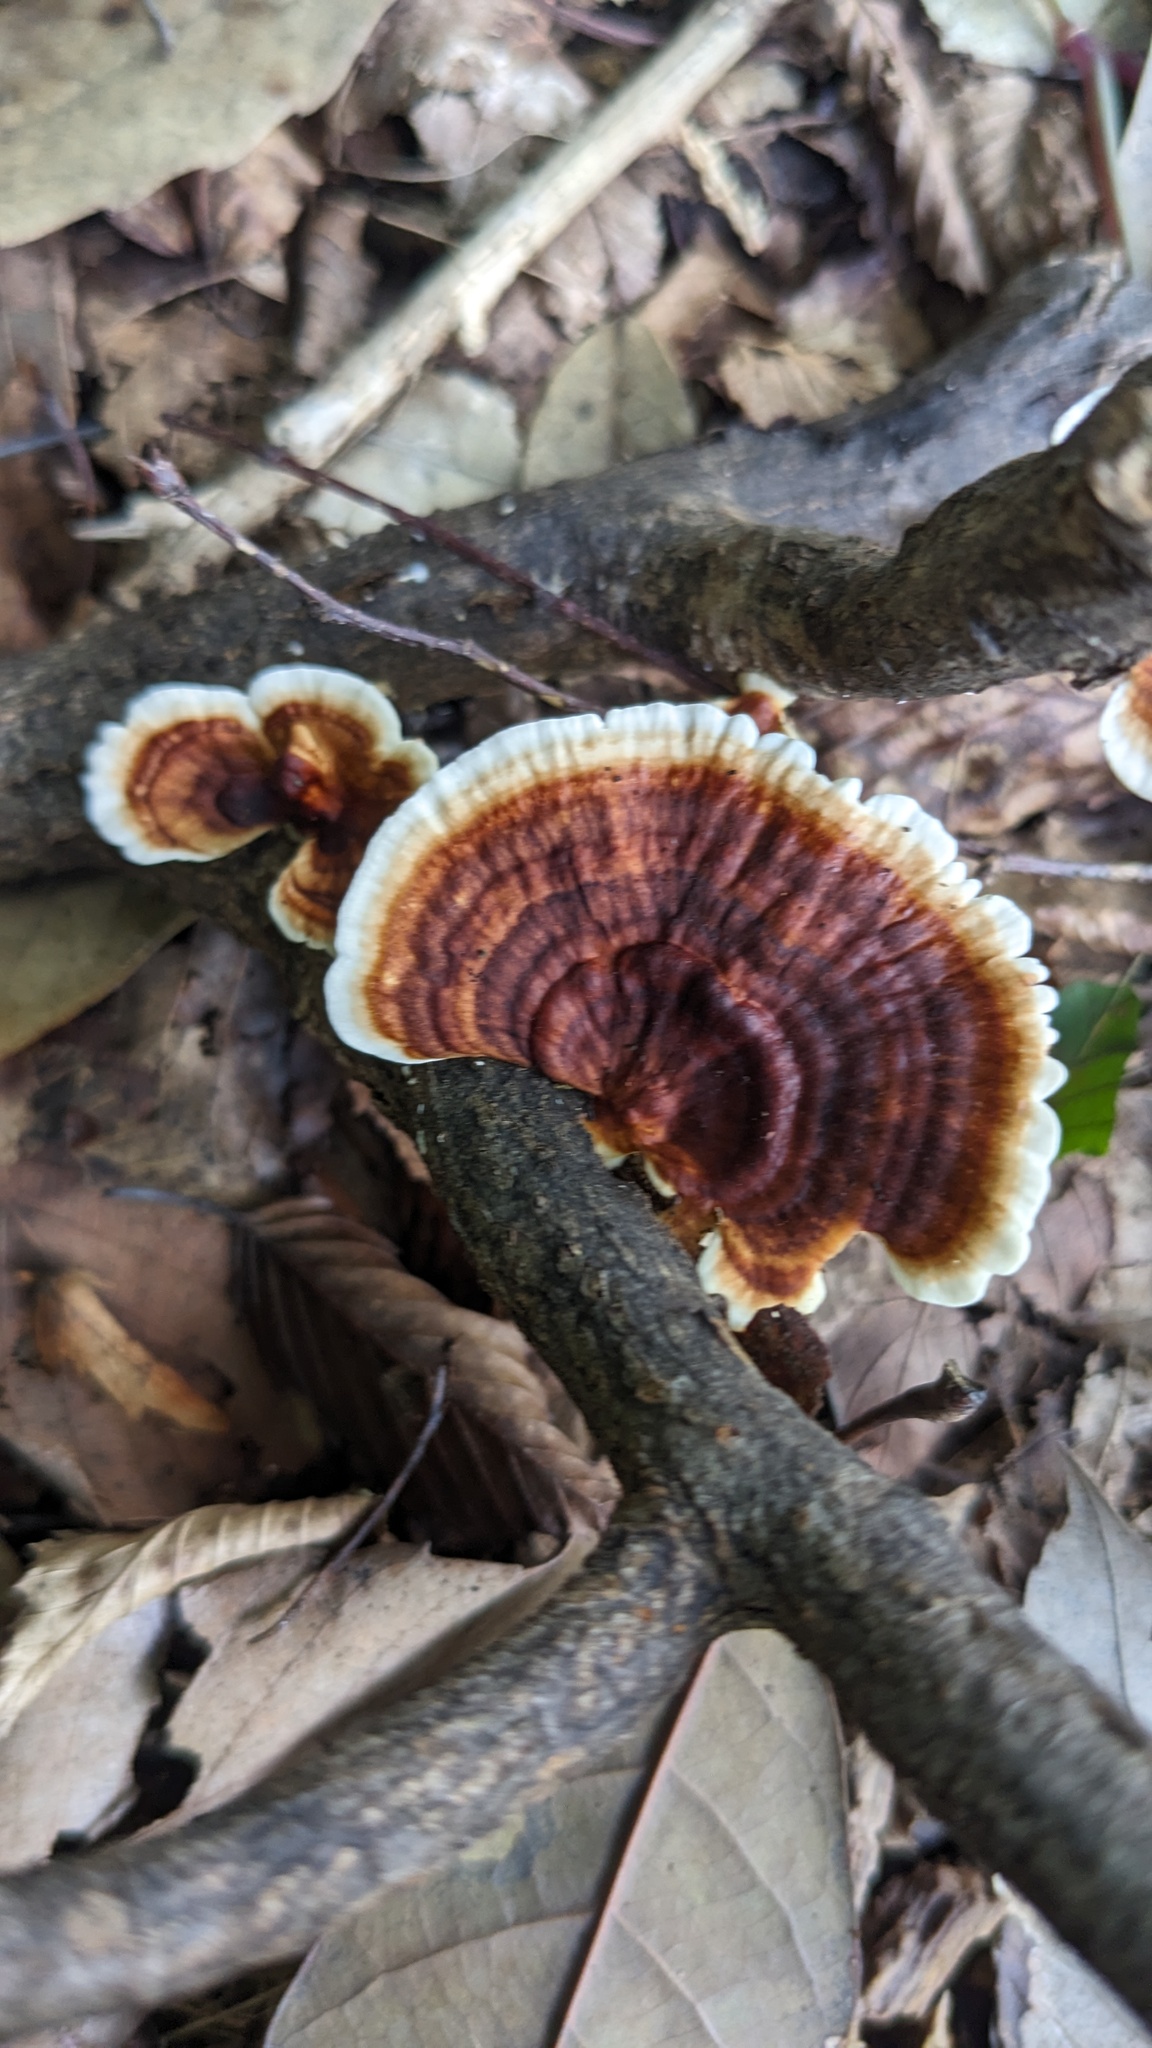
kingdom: Fungi
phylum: Basidiomycota
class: Agaricomycetes
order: Polyporales
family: Polyporaceae
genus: Trametes
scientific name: Trametes vernicipes
